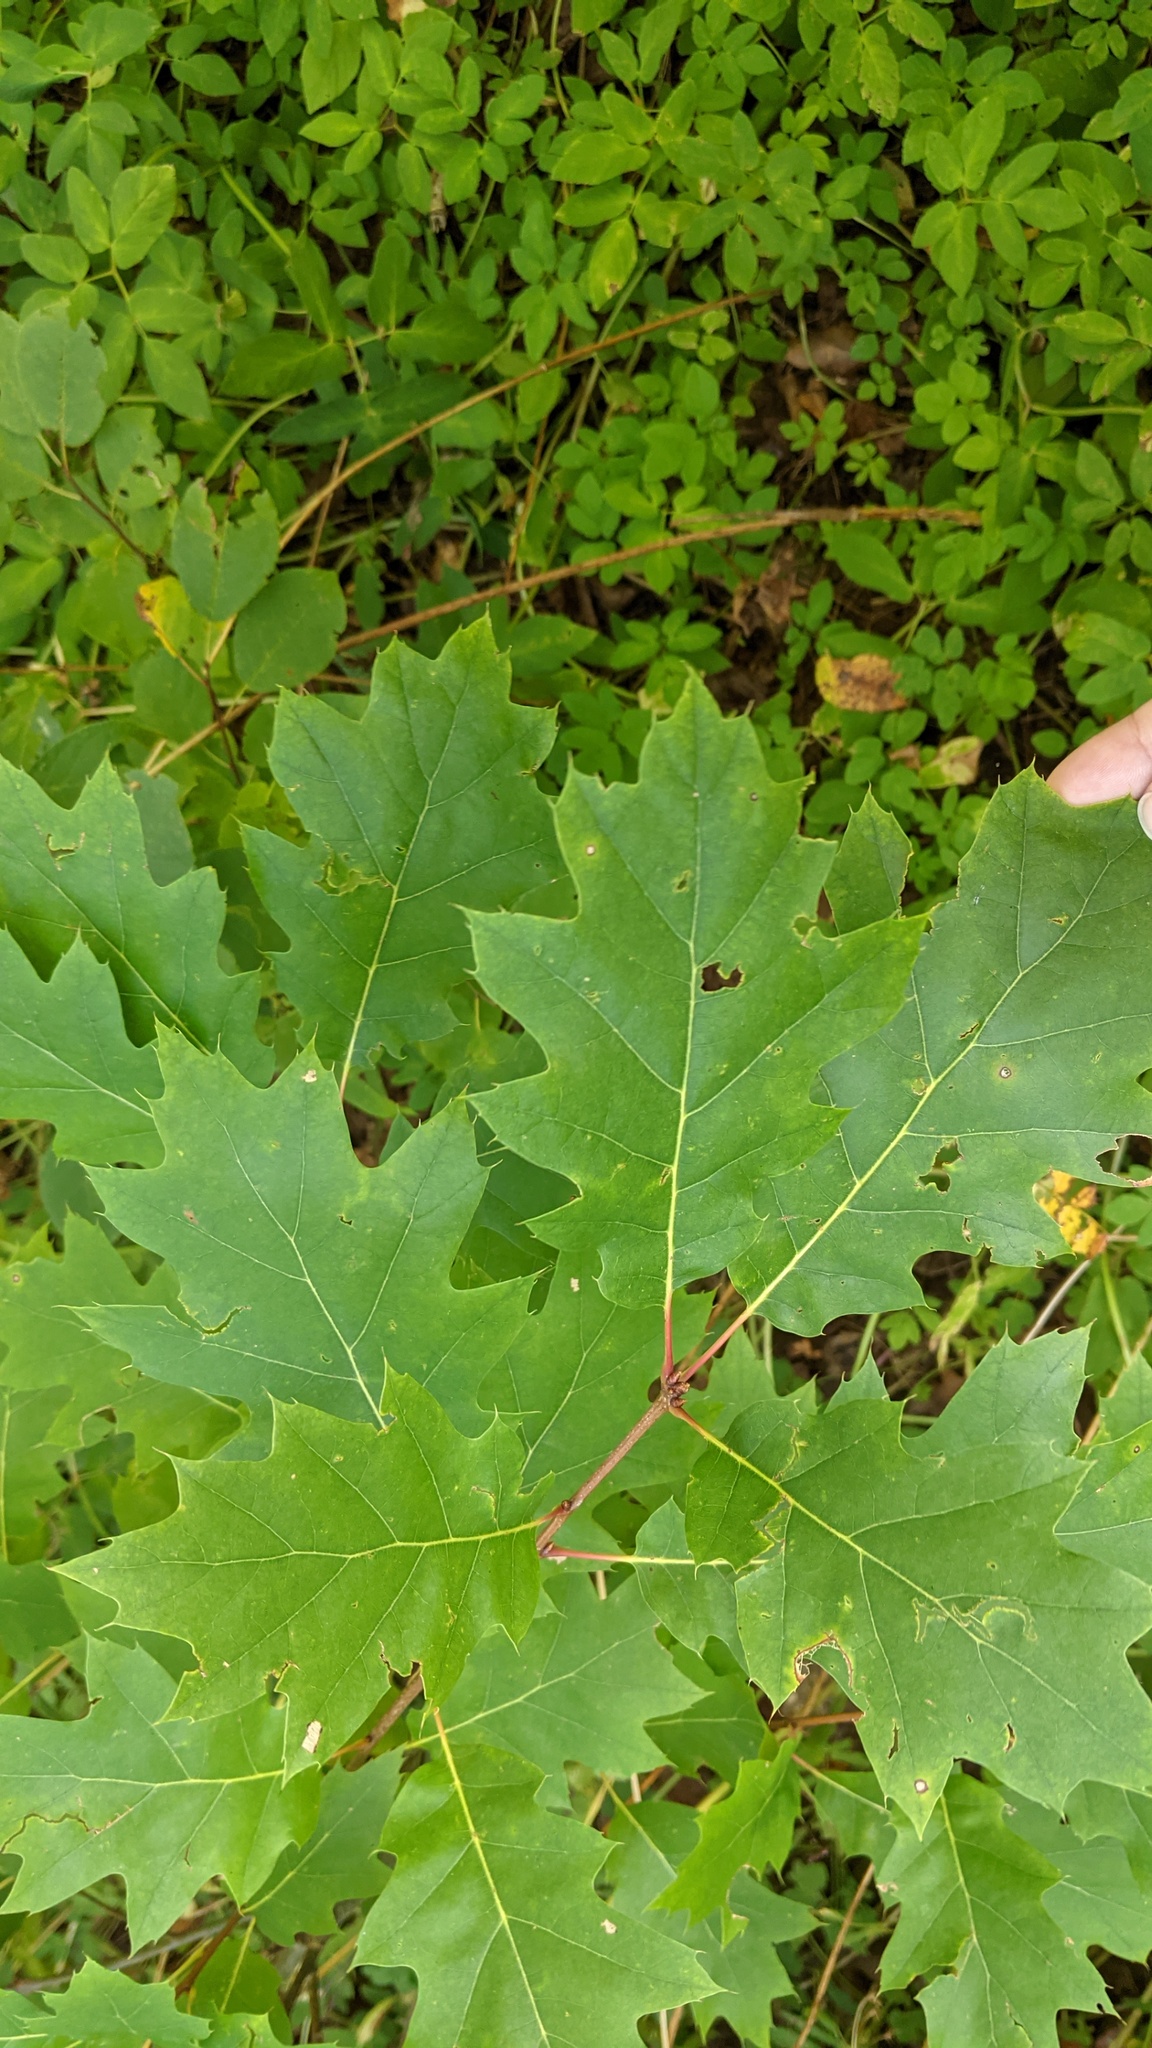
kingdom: Plantae
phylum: Tracheophyta
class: Magnoliopsida
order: Fagales
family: Fagaceae
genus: Quercus
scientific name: Quercus rubra
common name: Red oak
